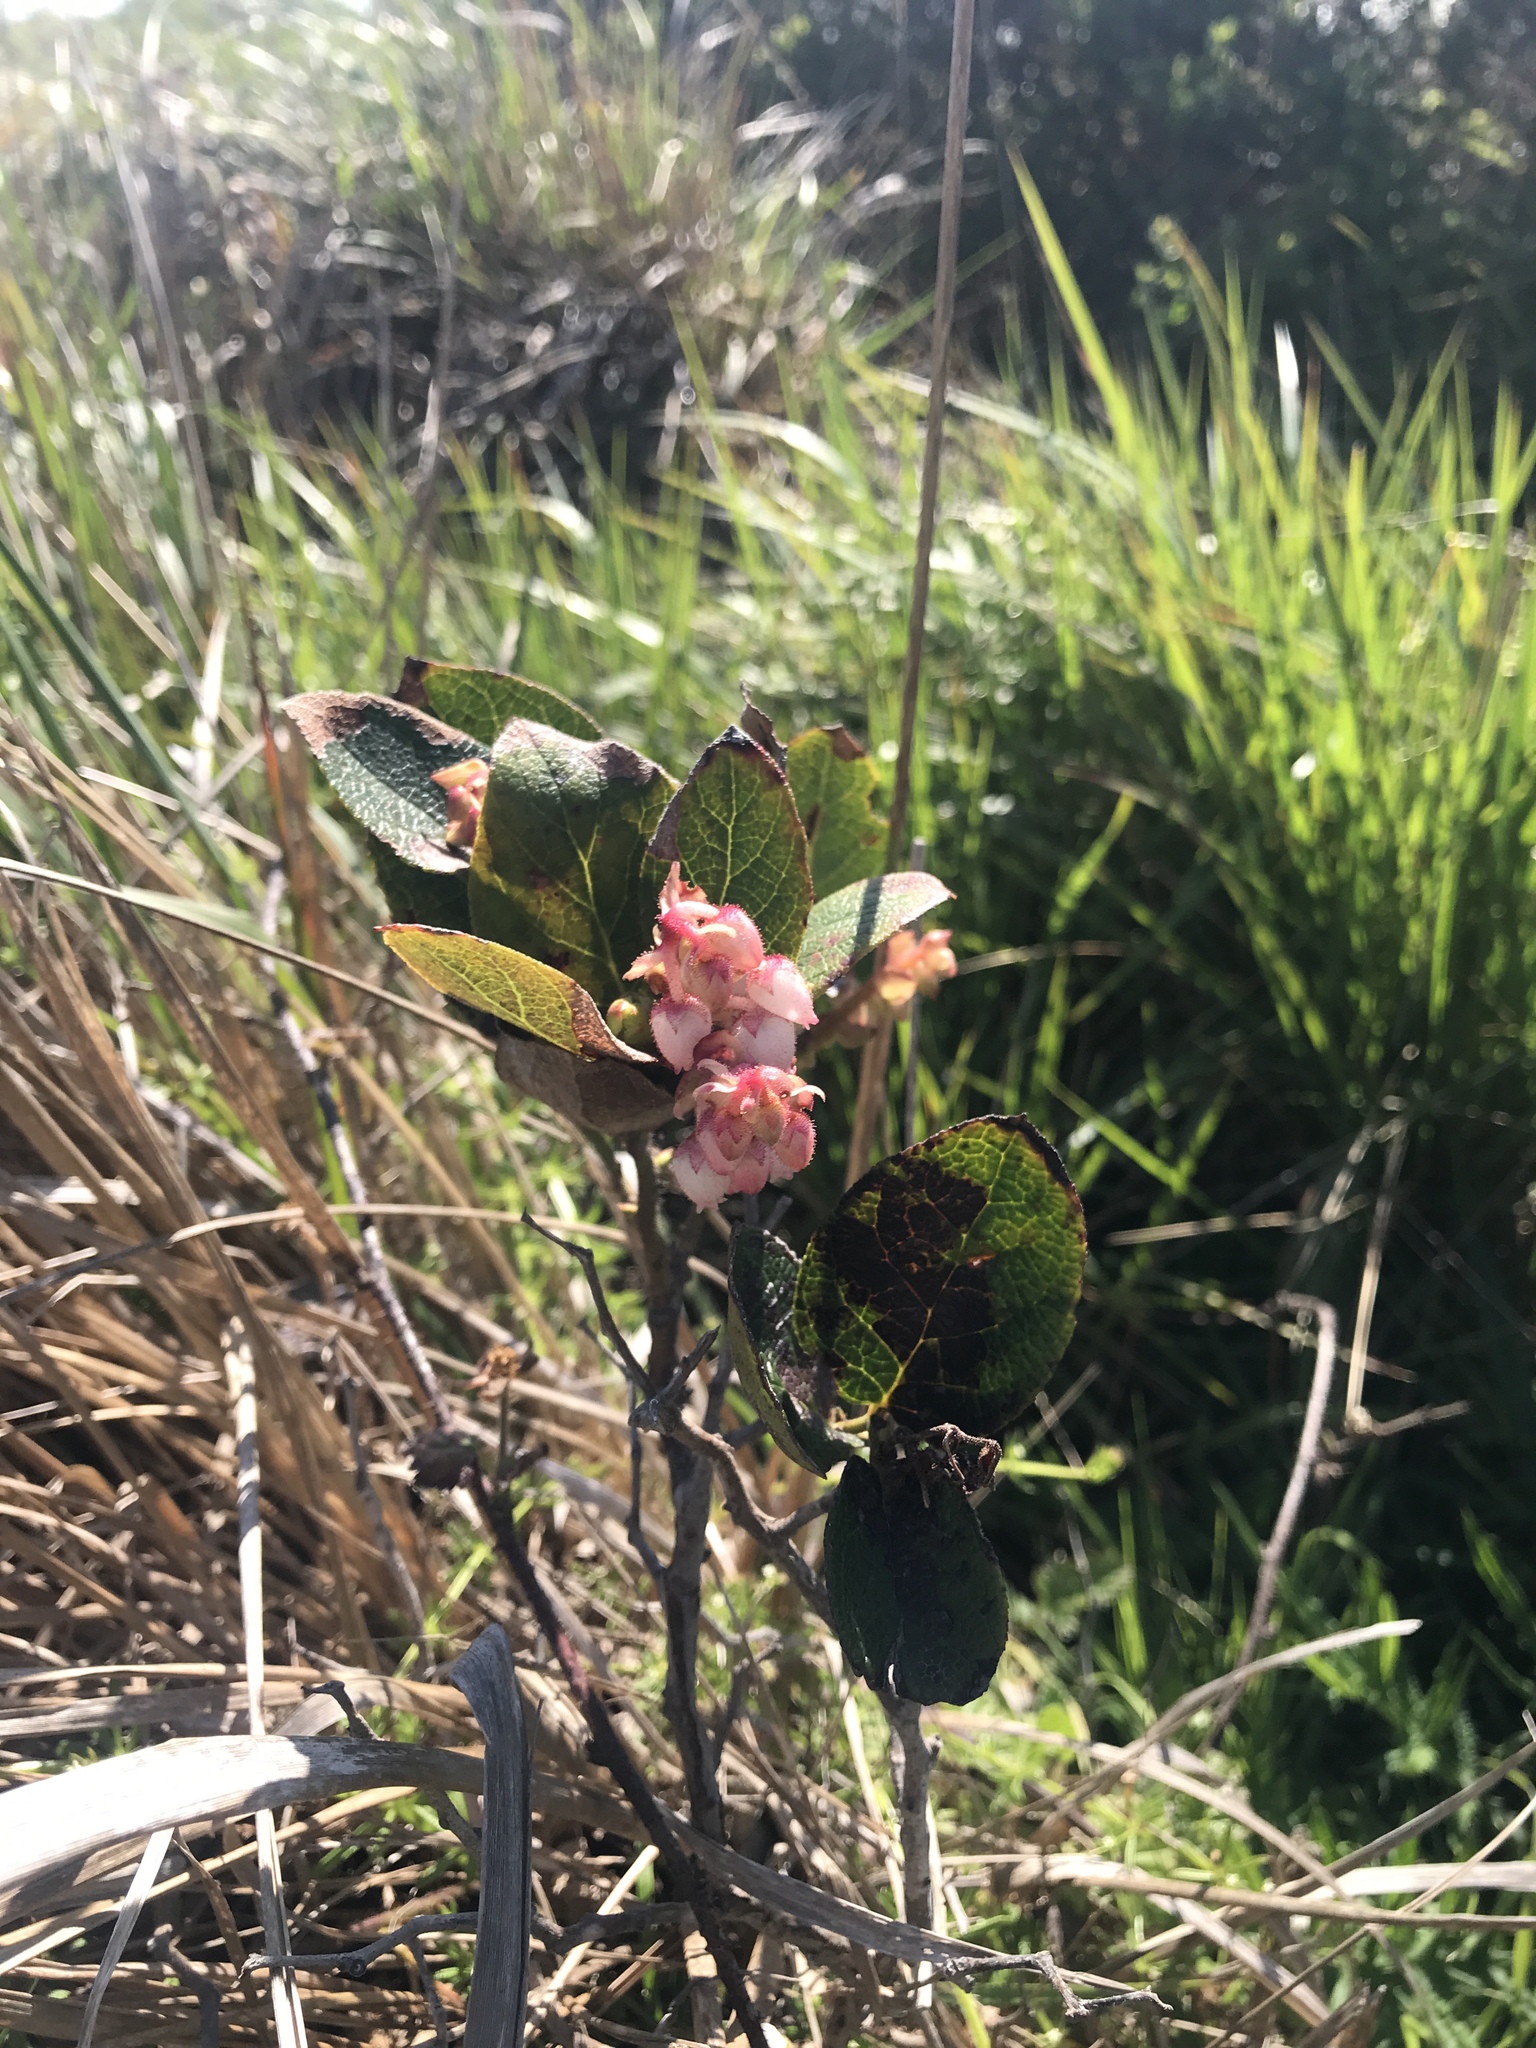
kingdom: Plantae
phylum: Tracheophyta
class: Magnoliopsida
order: Ericales
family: Ericaceae
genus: Gaultheria
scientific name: Gaultheria shallon
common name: Shallon
